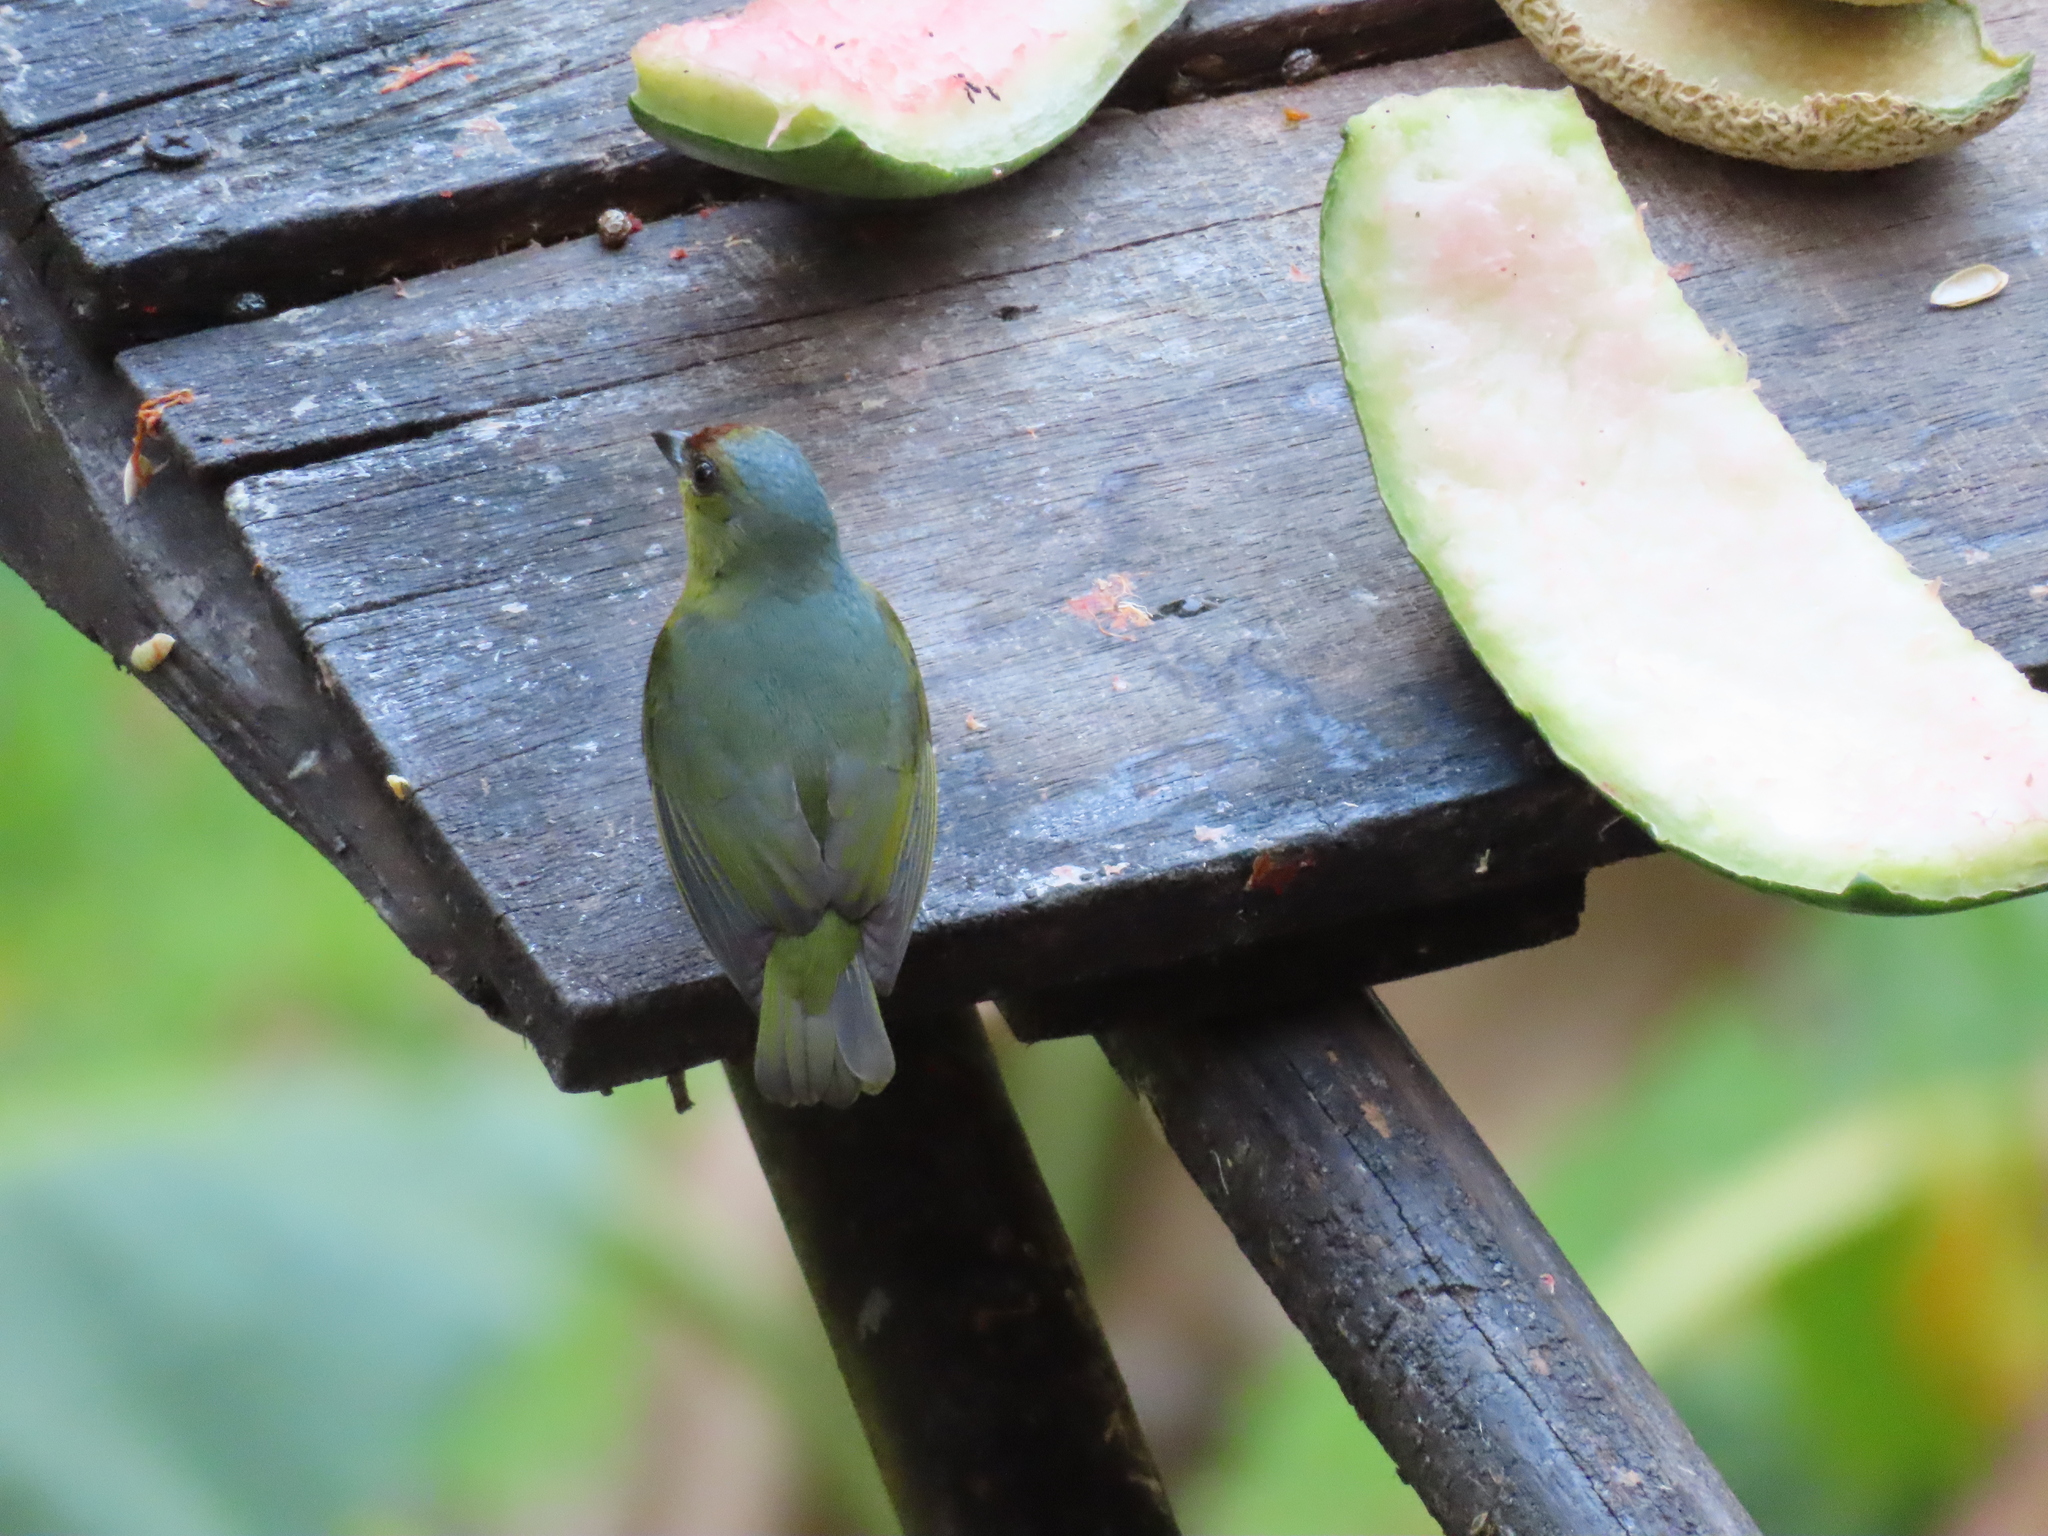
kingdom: Animalia
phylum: Chordata
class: Aves
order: Passeriformes
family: Fringillidae
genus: Euphonia
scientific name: Euphonia gouldi
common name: Olive-backed euphonia
